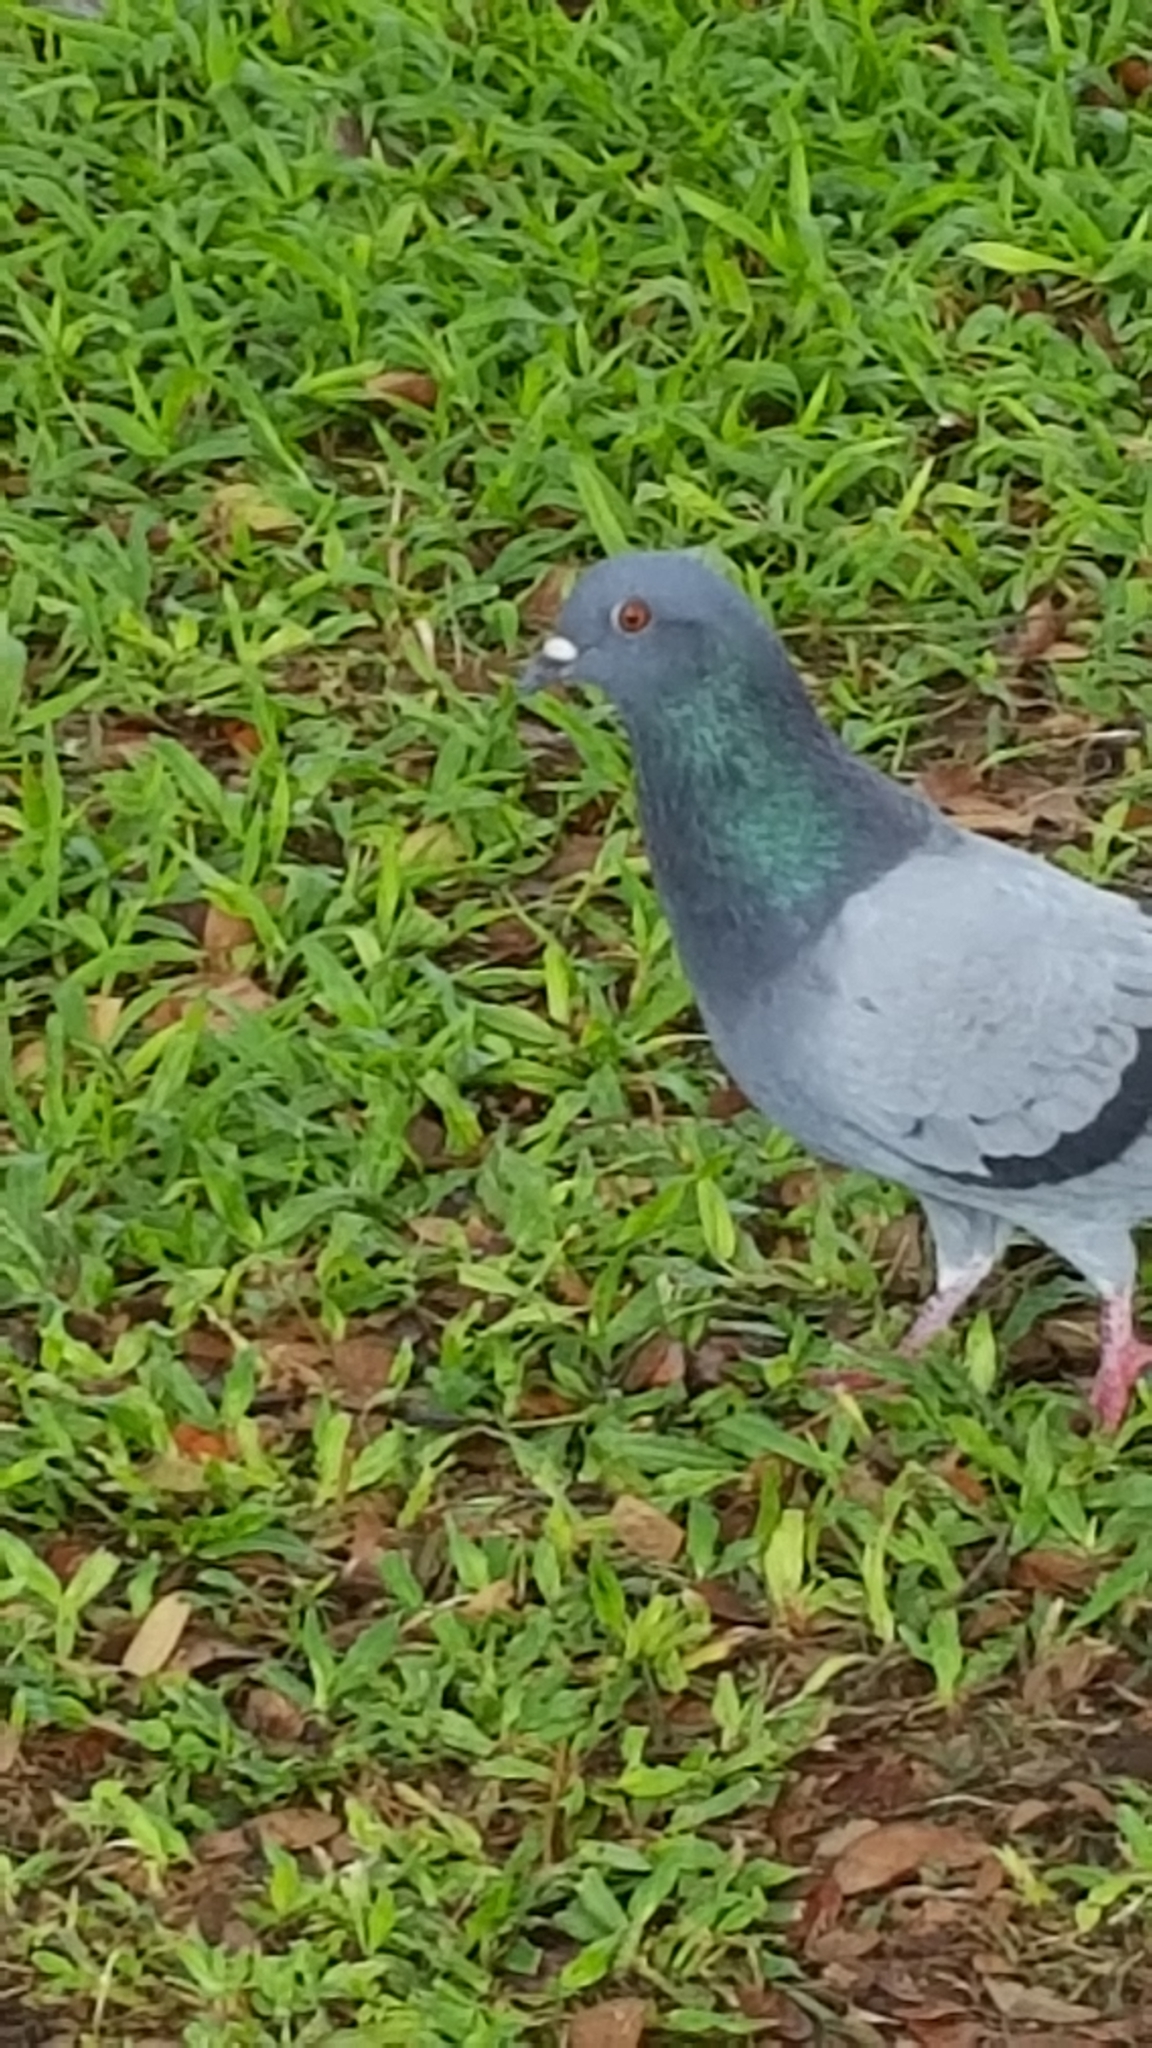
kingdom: Animalia
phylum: Chordata
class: Aves
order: Columbiformes
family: Columbidae
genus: Columba
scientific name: Columba livia
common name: Rock pigeon
